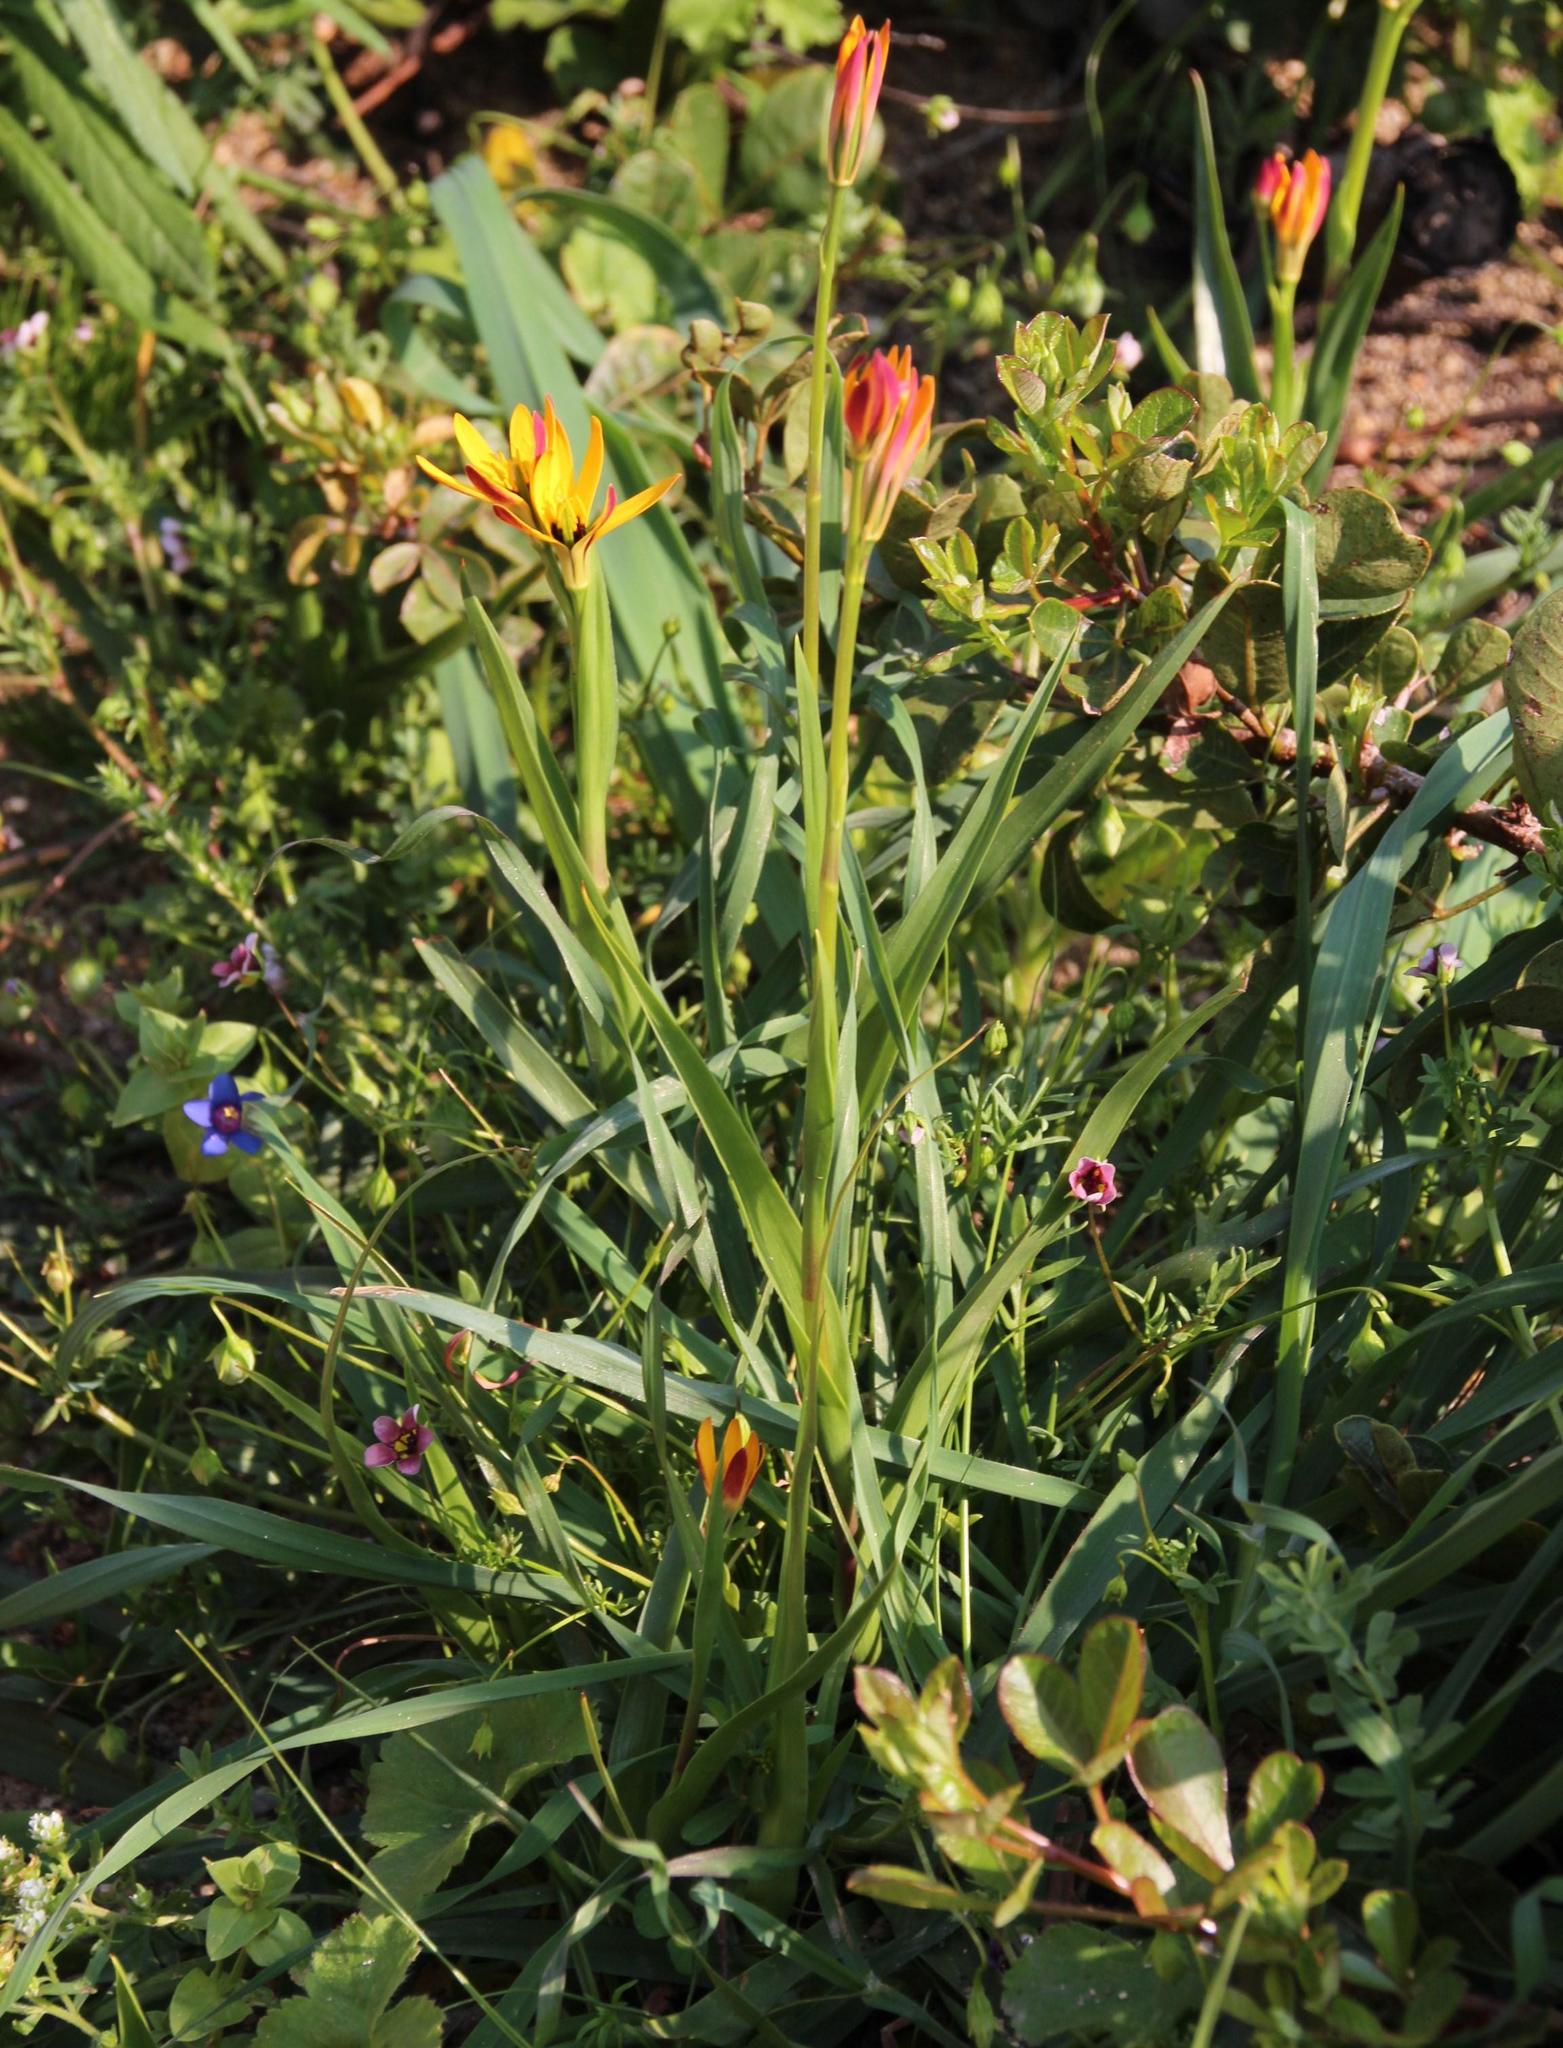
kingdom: Plantae
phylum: Tracheophyta
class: Liliopsida
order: Liliales
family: Colchicaceae
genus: Baeometra
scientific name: Baeometra uniflora
